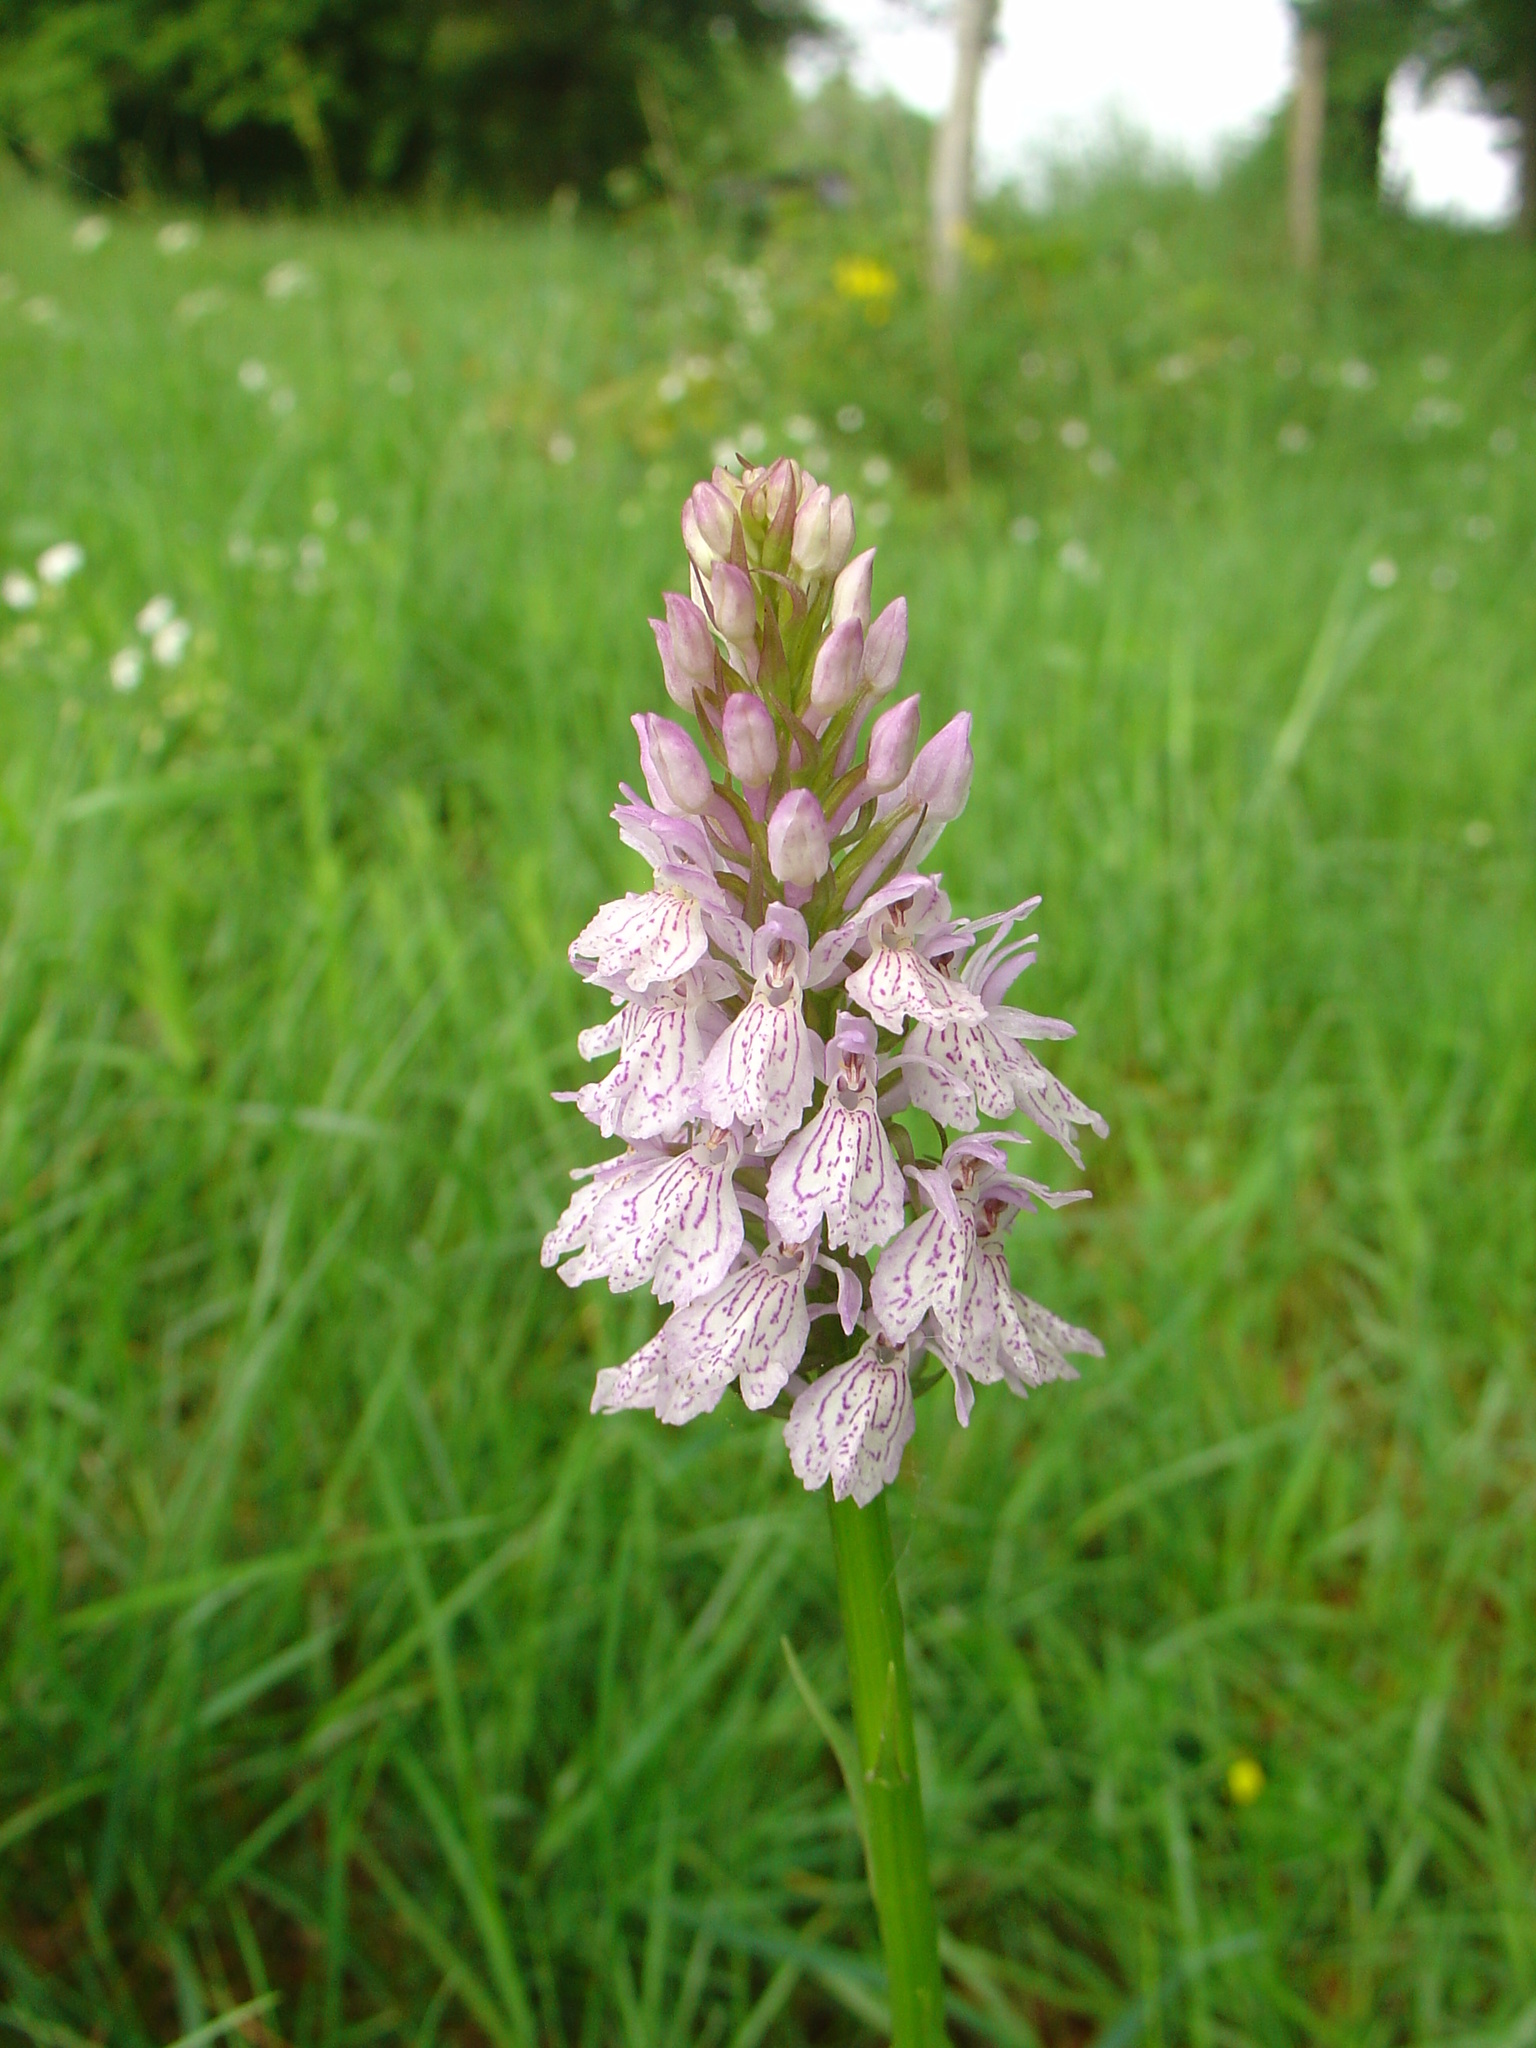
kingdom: Plantae
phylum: Tracheophyta
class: Liliopsida
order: Asparagales
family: Orchidaceae
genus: Dactylorhiza
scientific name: Dactylorhiza maculata
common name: Heath spotted-orchid
